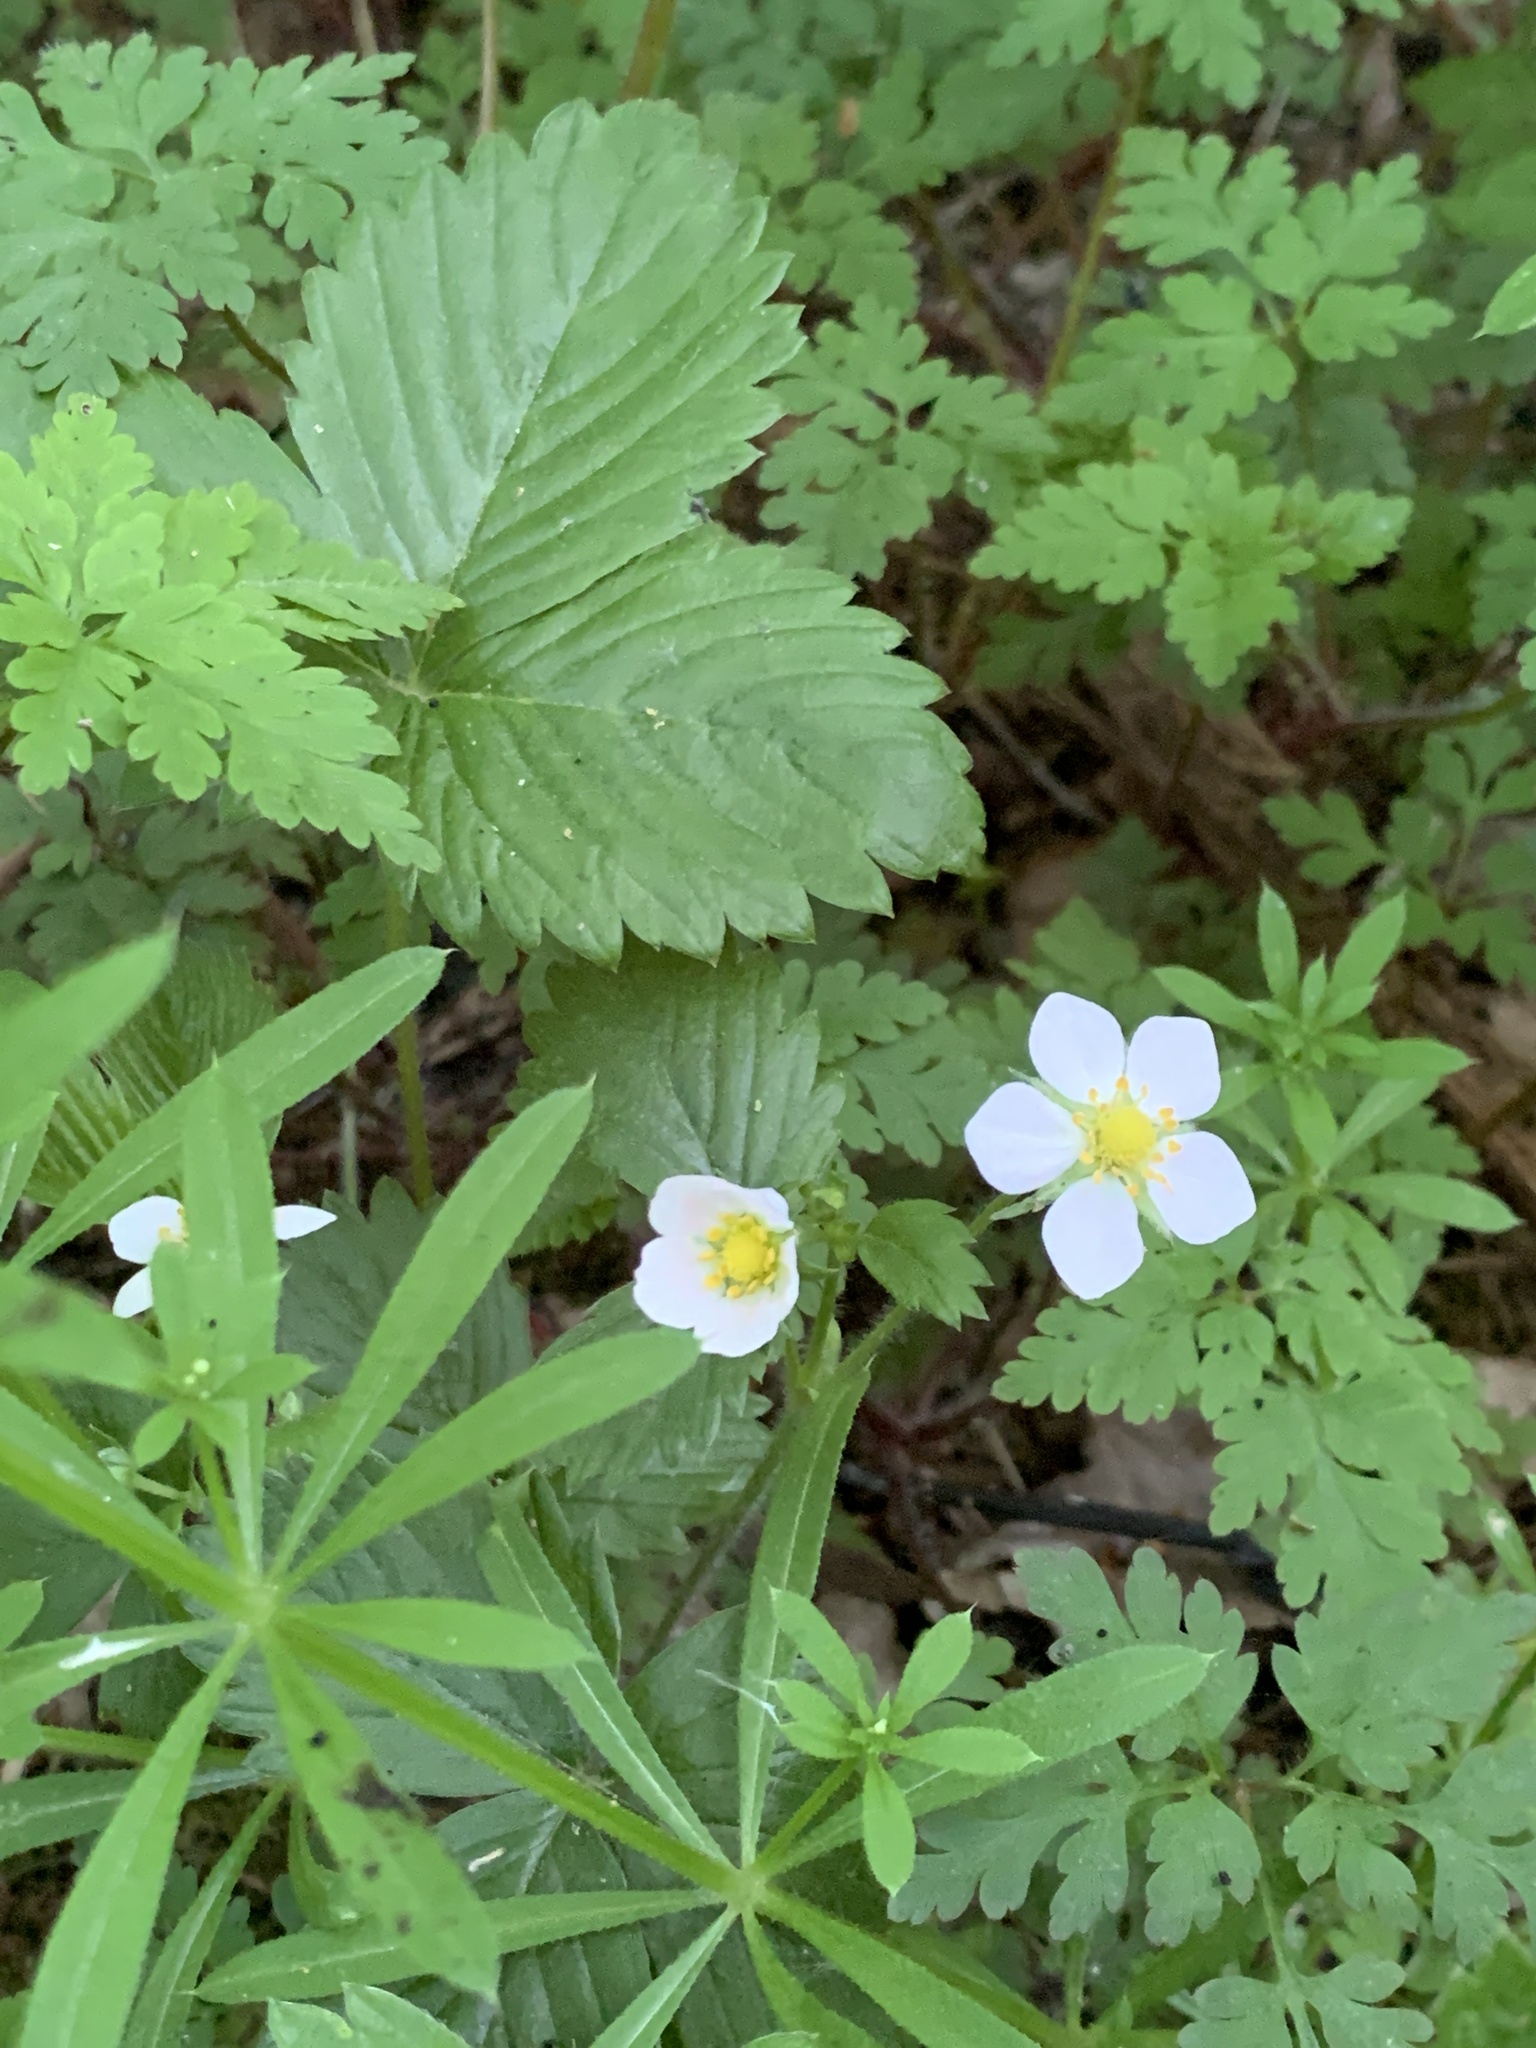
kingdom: Plantae
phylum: Tracheophyta
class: Magnoliopsida
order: Rosales
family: Rosaceae
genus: Fragaria
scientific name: Fragaria vesca
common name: Wild strawberry
